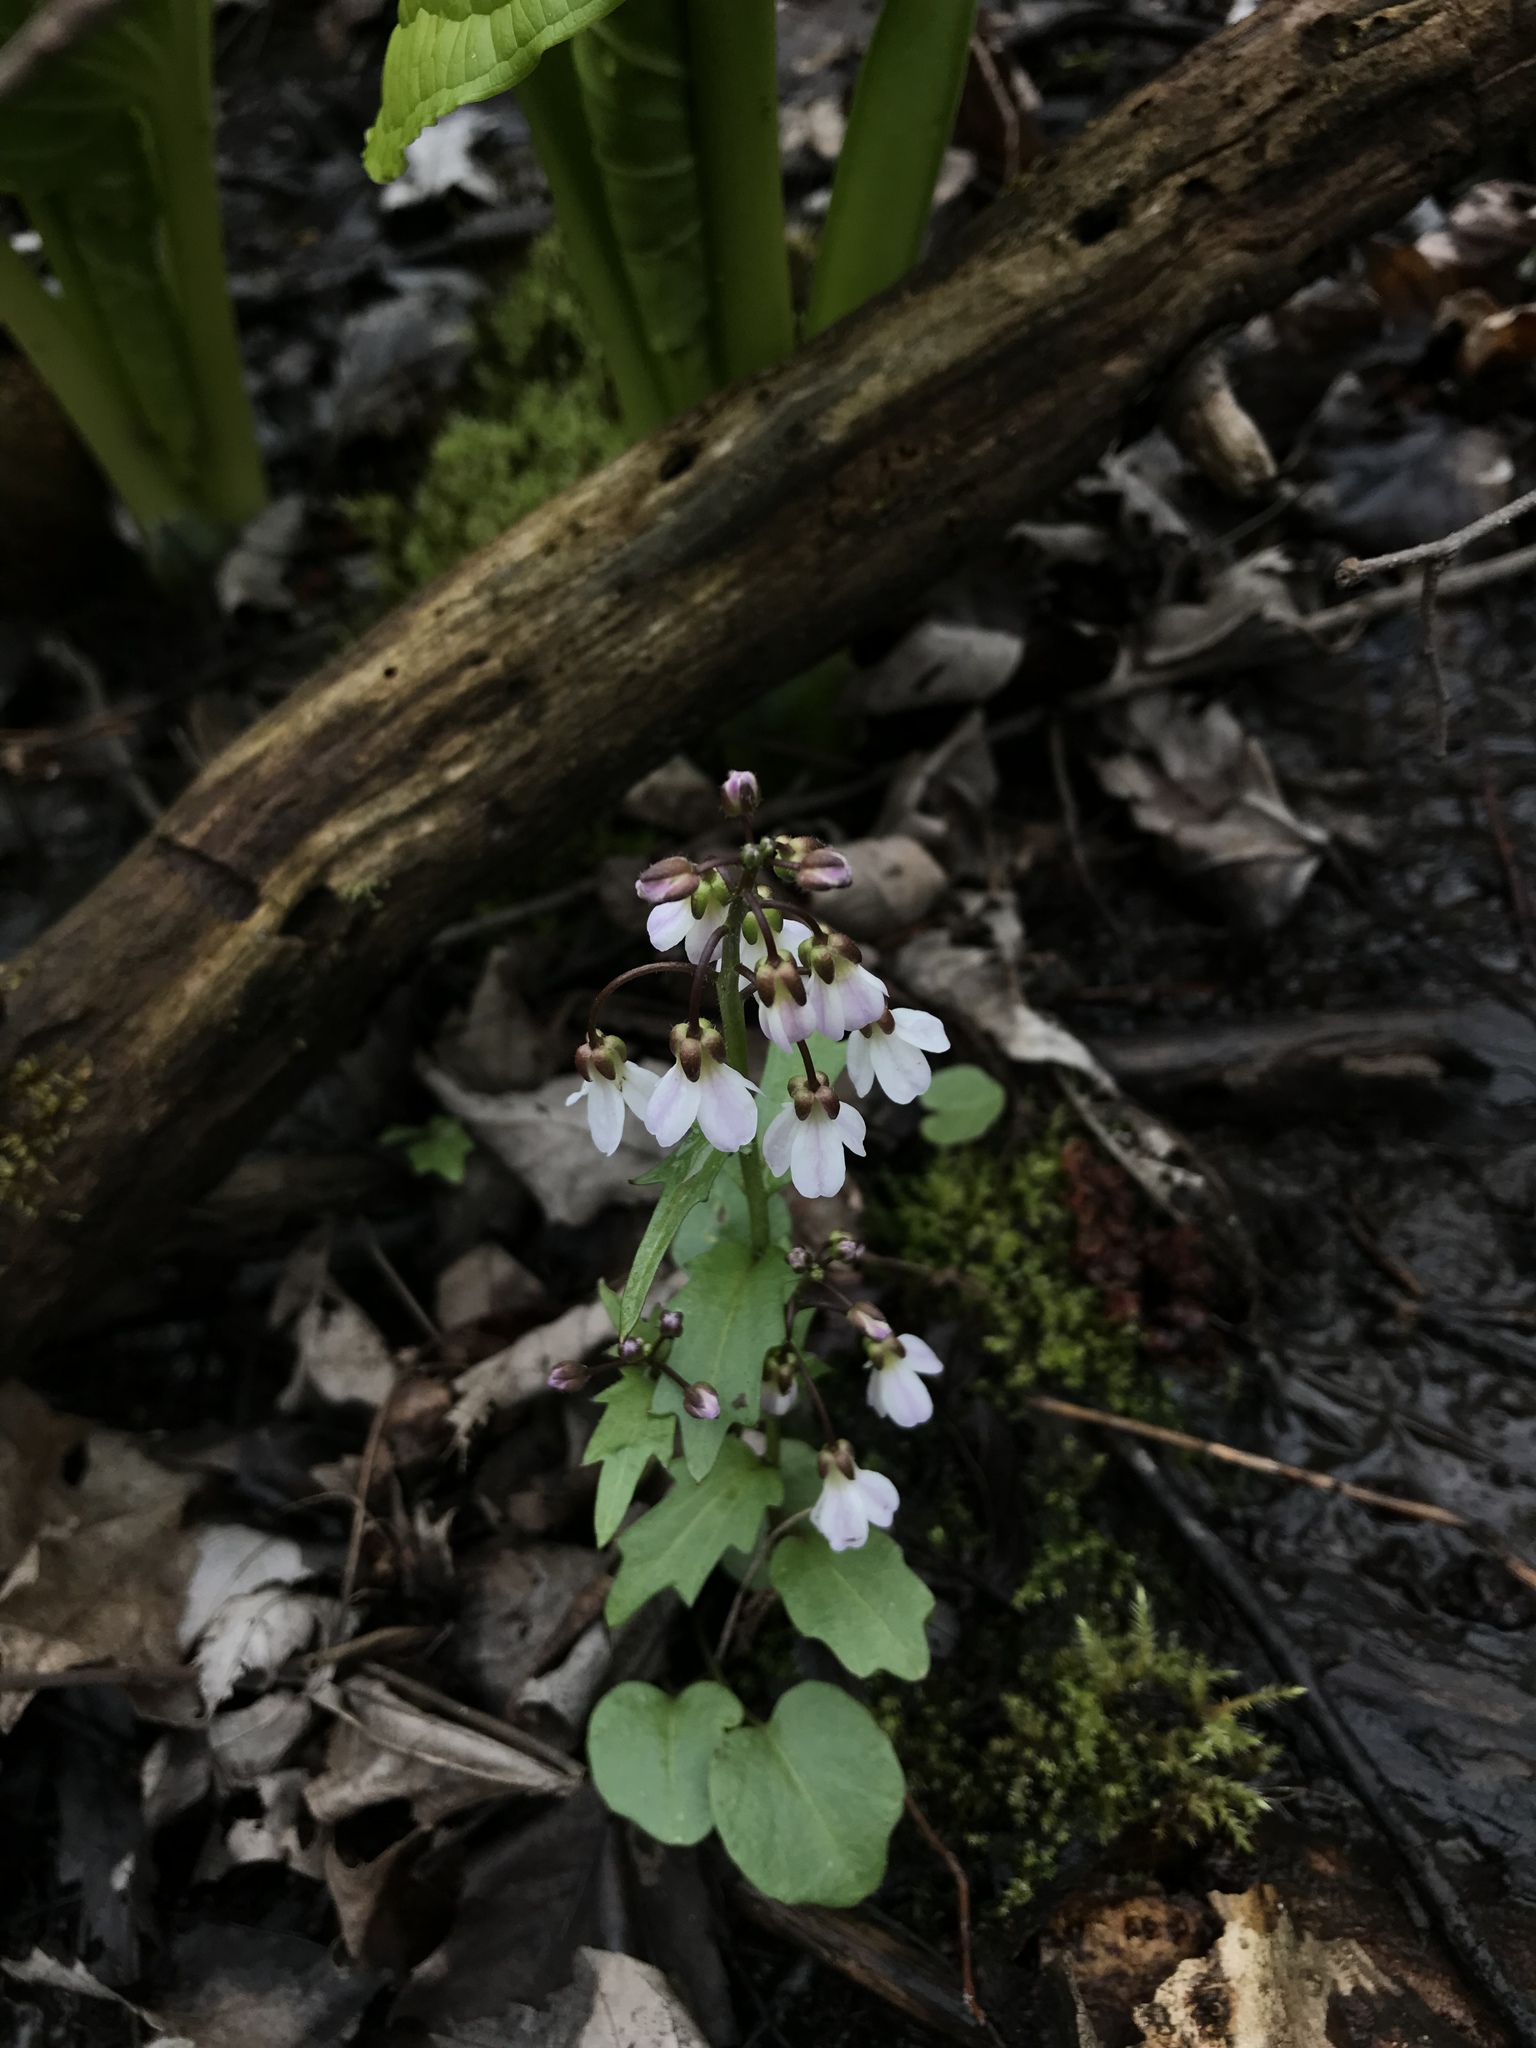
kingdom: Plantae
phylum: Tracheophyta
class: Magnoliopsida
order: Brassicales
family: Brassicaceae
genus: Cardamine
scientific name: Cardamine douglassii
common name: Purple cress
